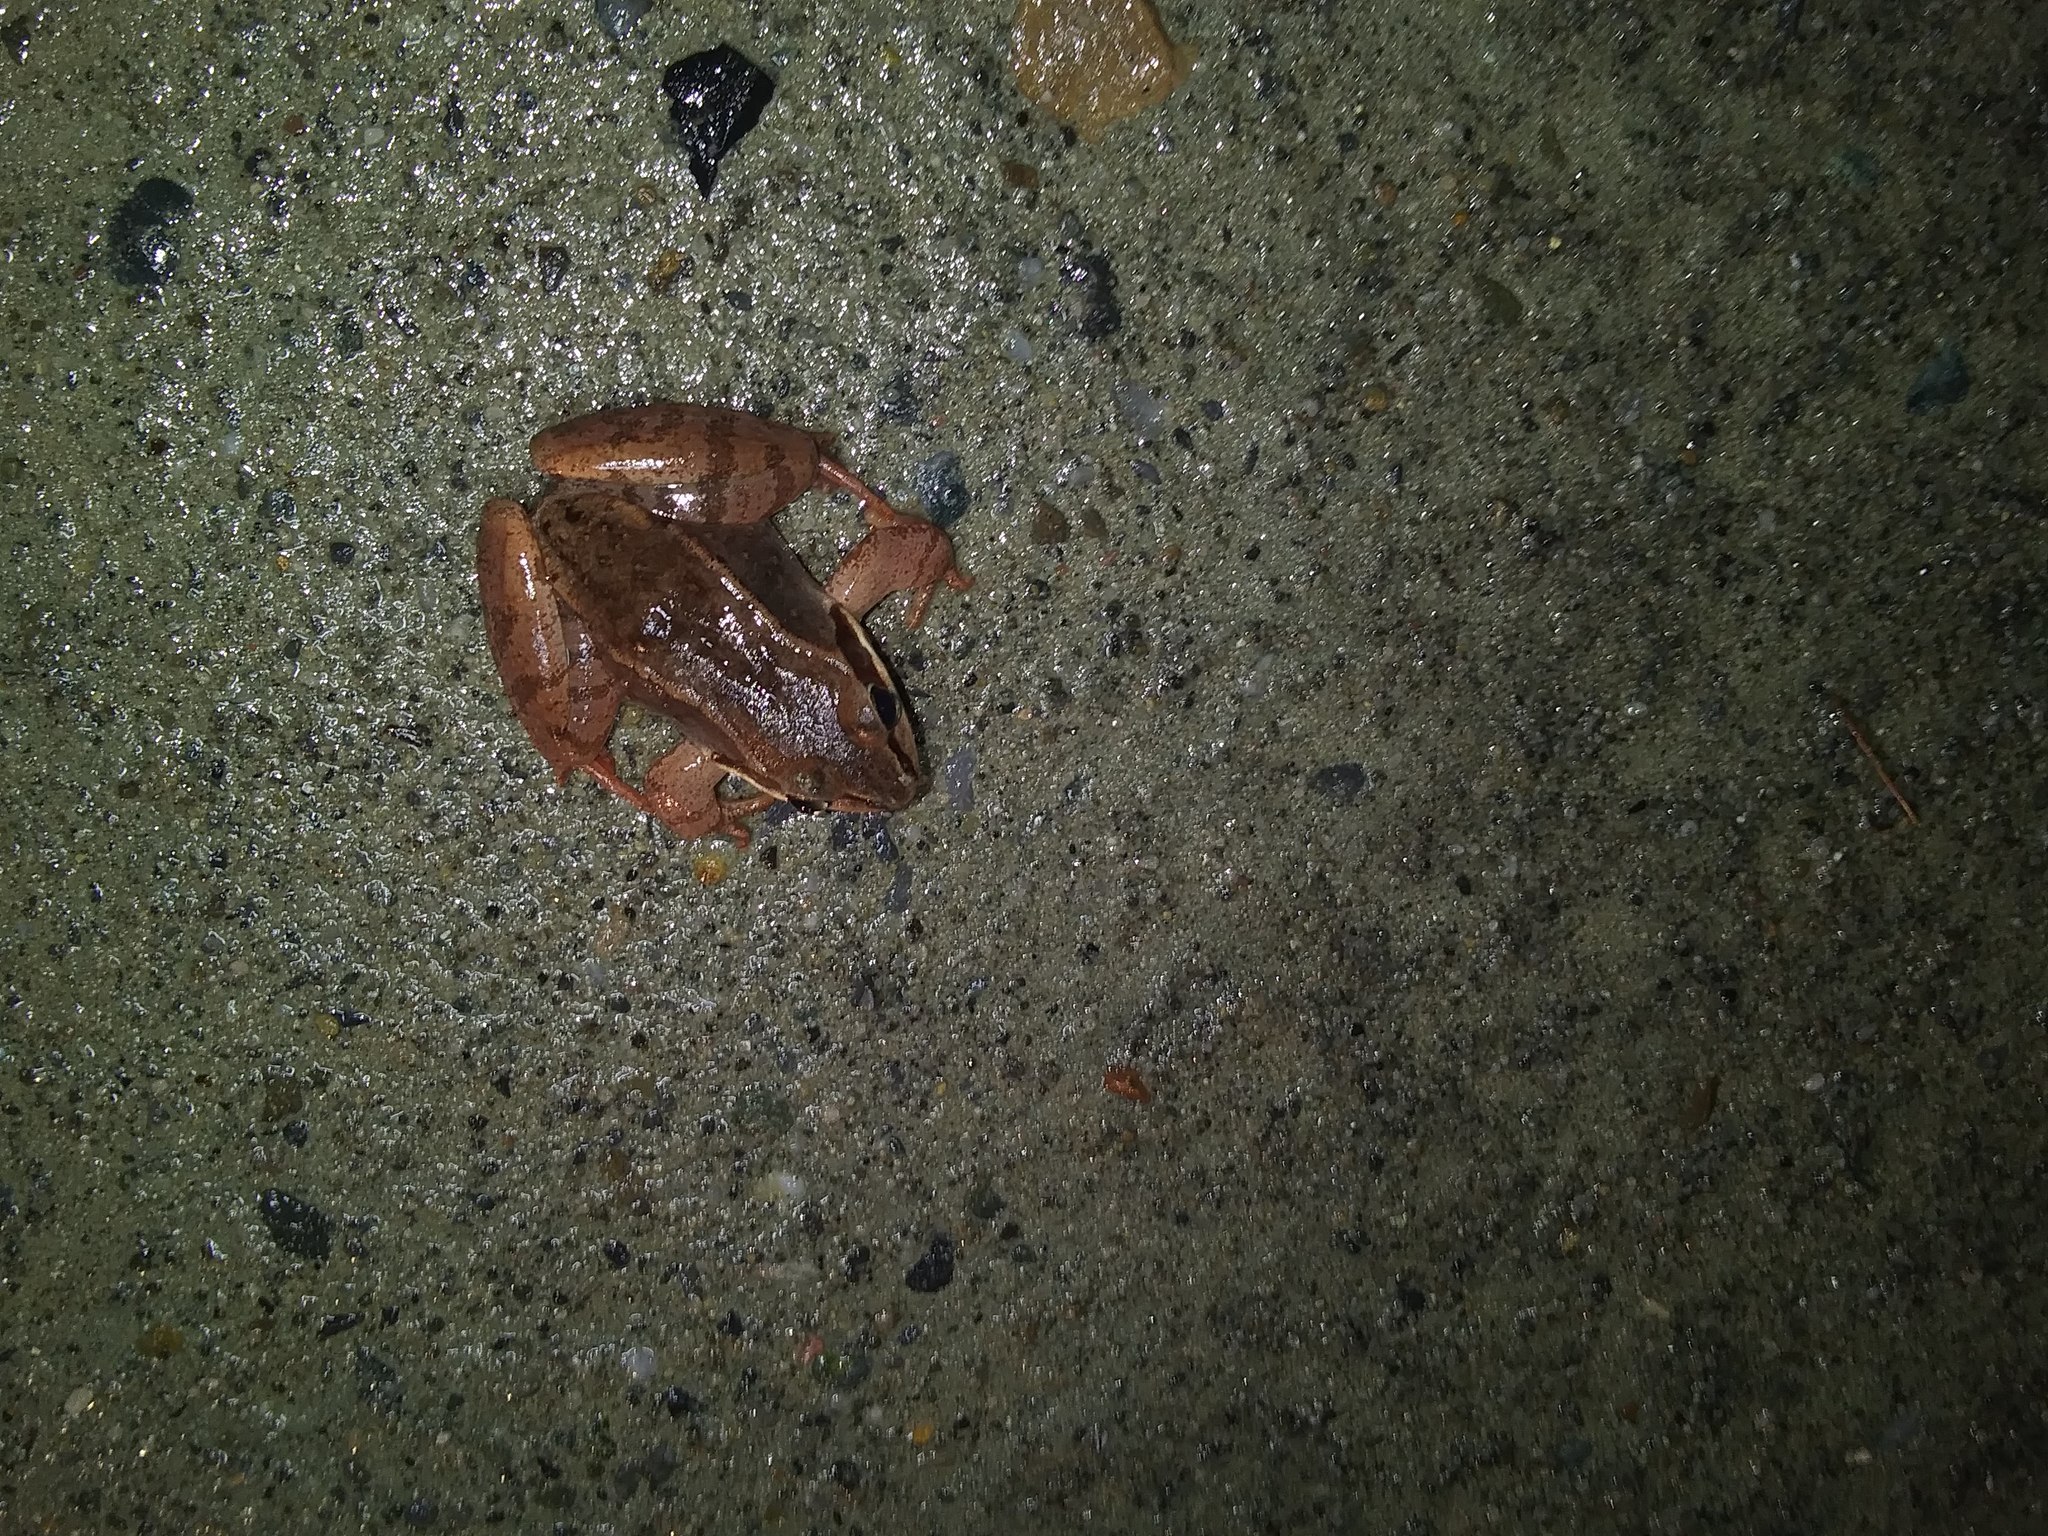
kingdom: Animalia
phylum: Chordata
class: Amphibia
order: Anura
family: Ranidae
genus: Lithobates
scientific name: Lithobates sylvaticus
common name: Wood frog
